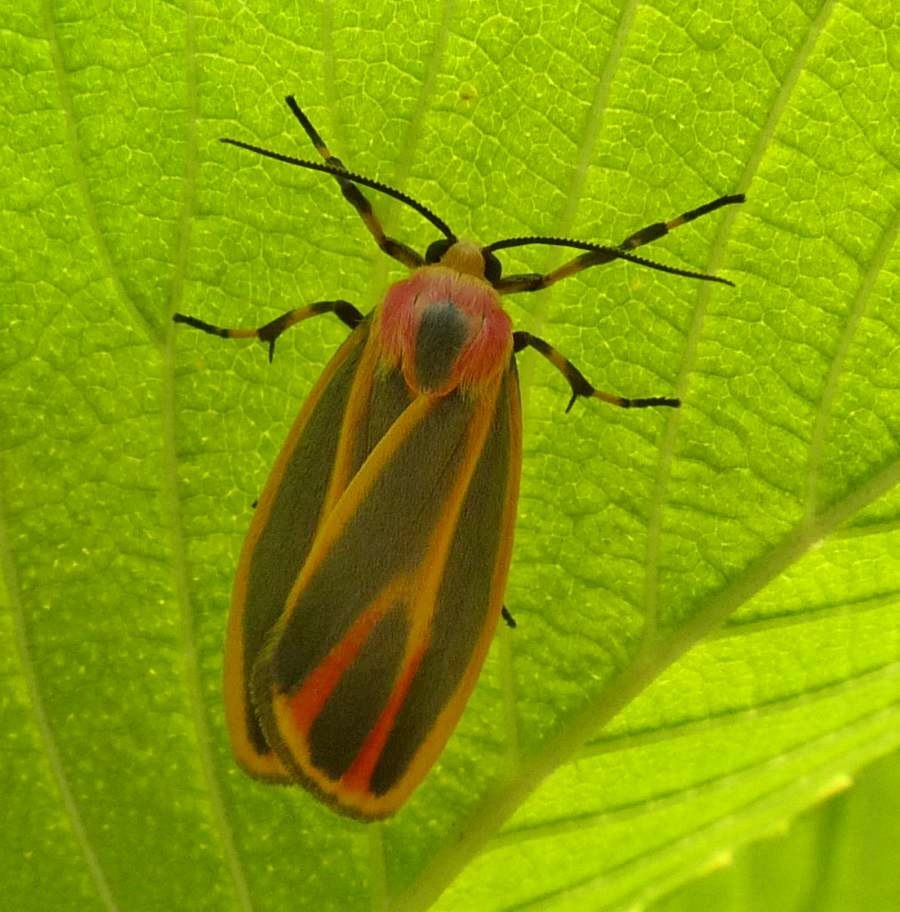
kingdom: Animalia
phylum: Arthropoda
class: Insecta
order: Lepidoptera
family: Erebidae
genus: Hypoprepia
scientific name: Hypoprepia fucosa
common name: Painted lichen moth
